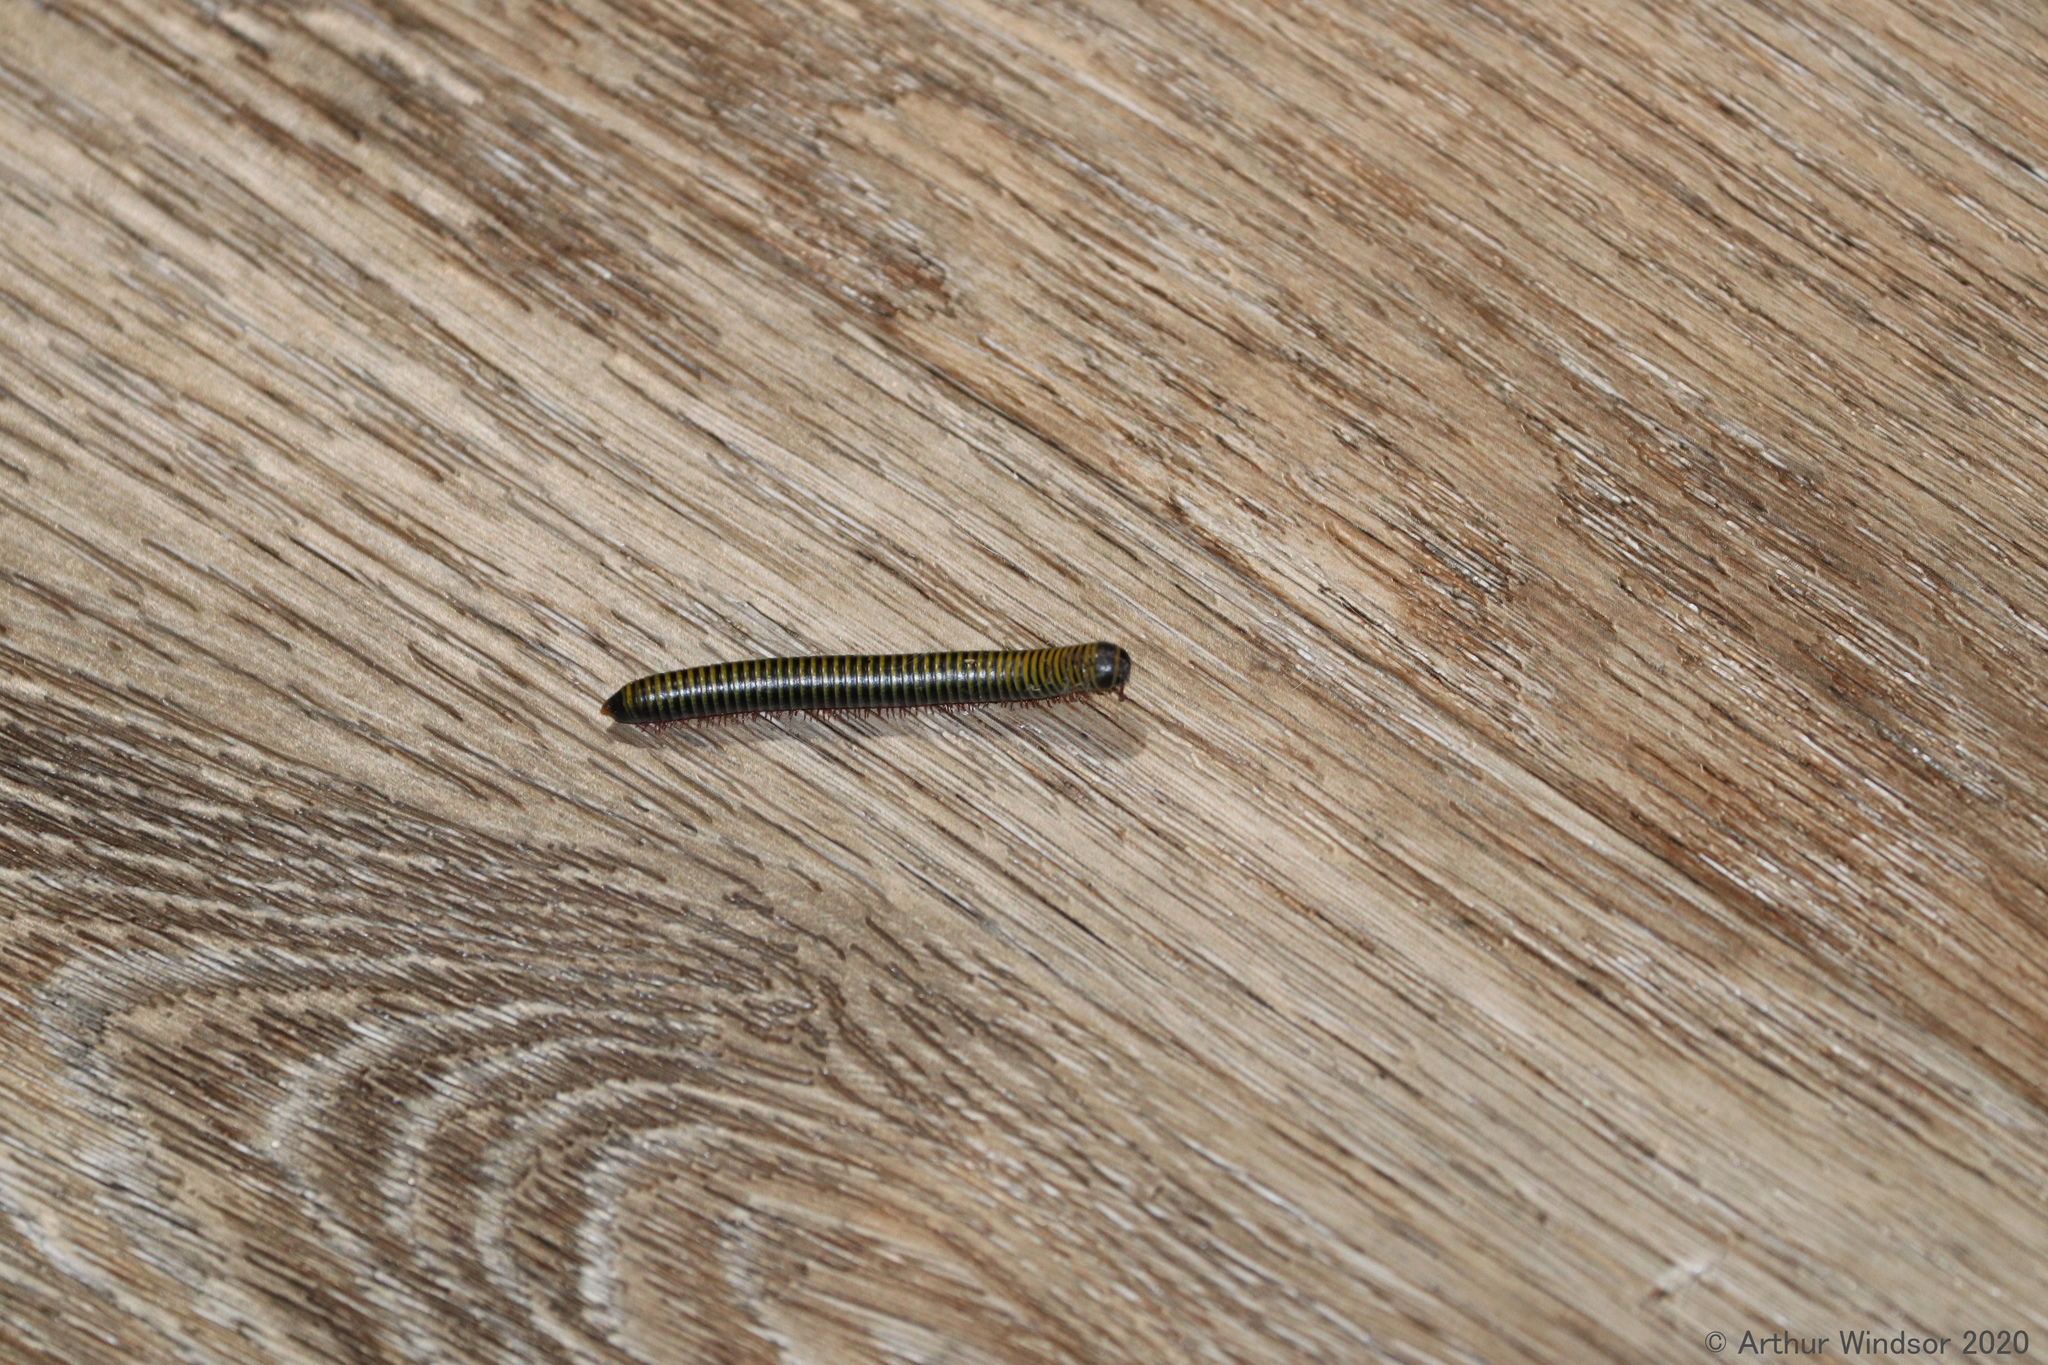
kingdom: Animalia
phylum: Arthropoda
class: Diplopoda
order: Spirobolida
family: Rhinocricidae
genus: Anadenobolus
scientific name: Anadenobolus monilicornis
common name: Caribbean millipede
